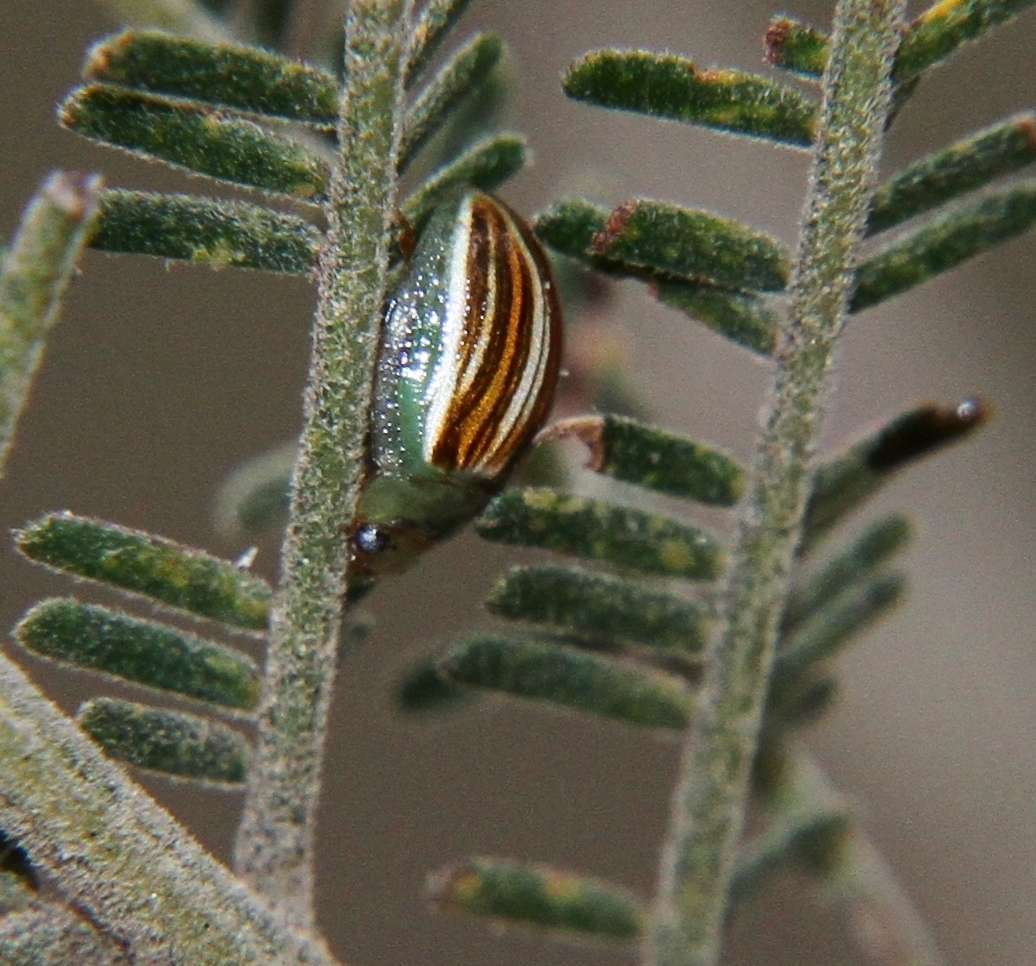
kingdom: Animalia
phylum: Arthropoda
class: Insecta
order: Coleoptera
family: Chrysomelidae
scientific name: Chrysomelidae
